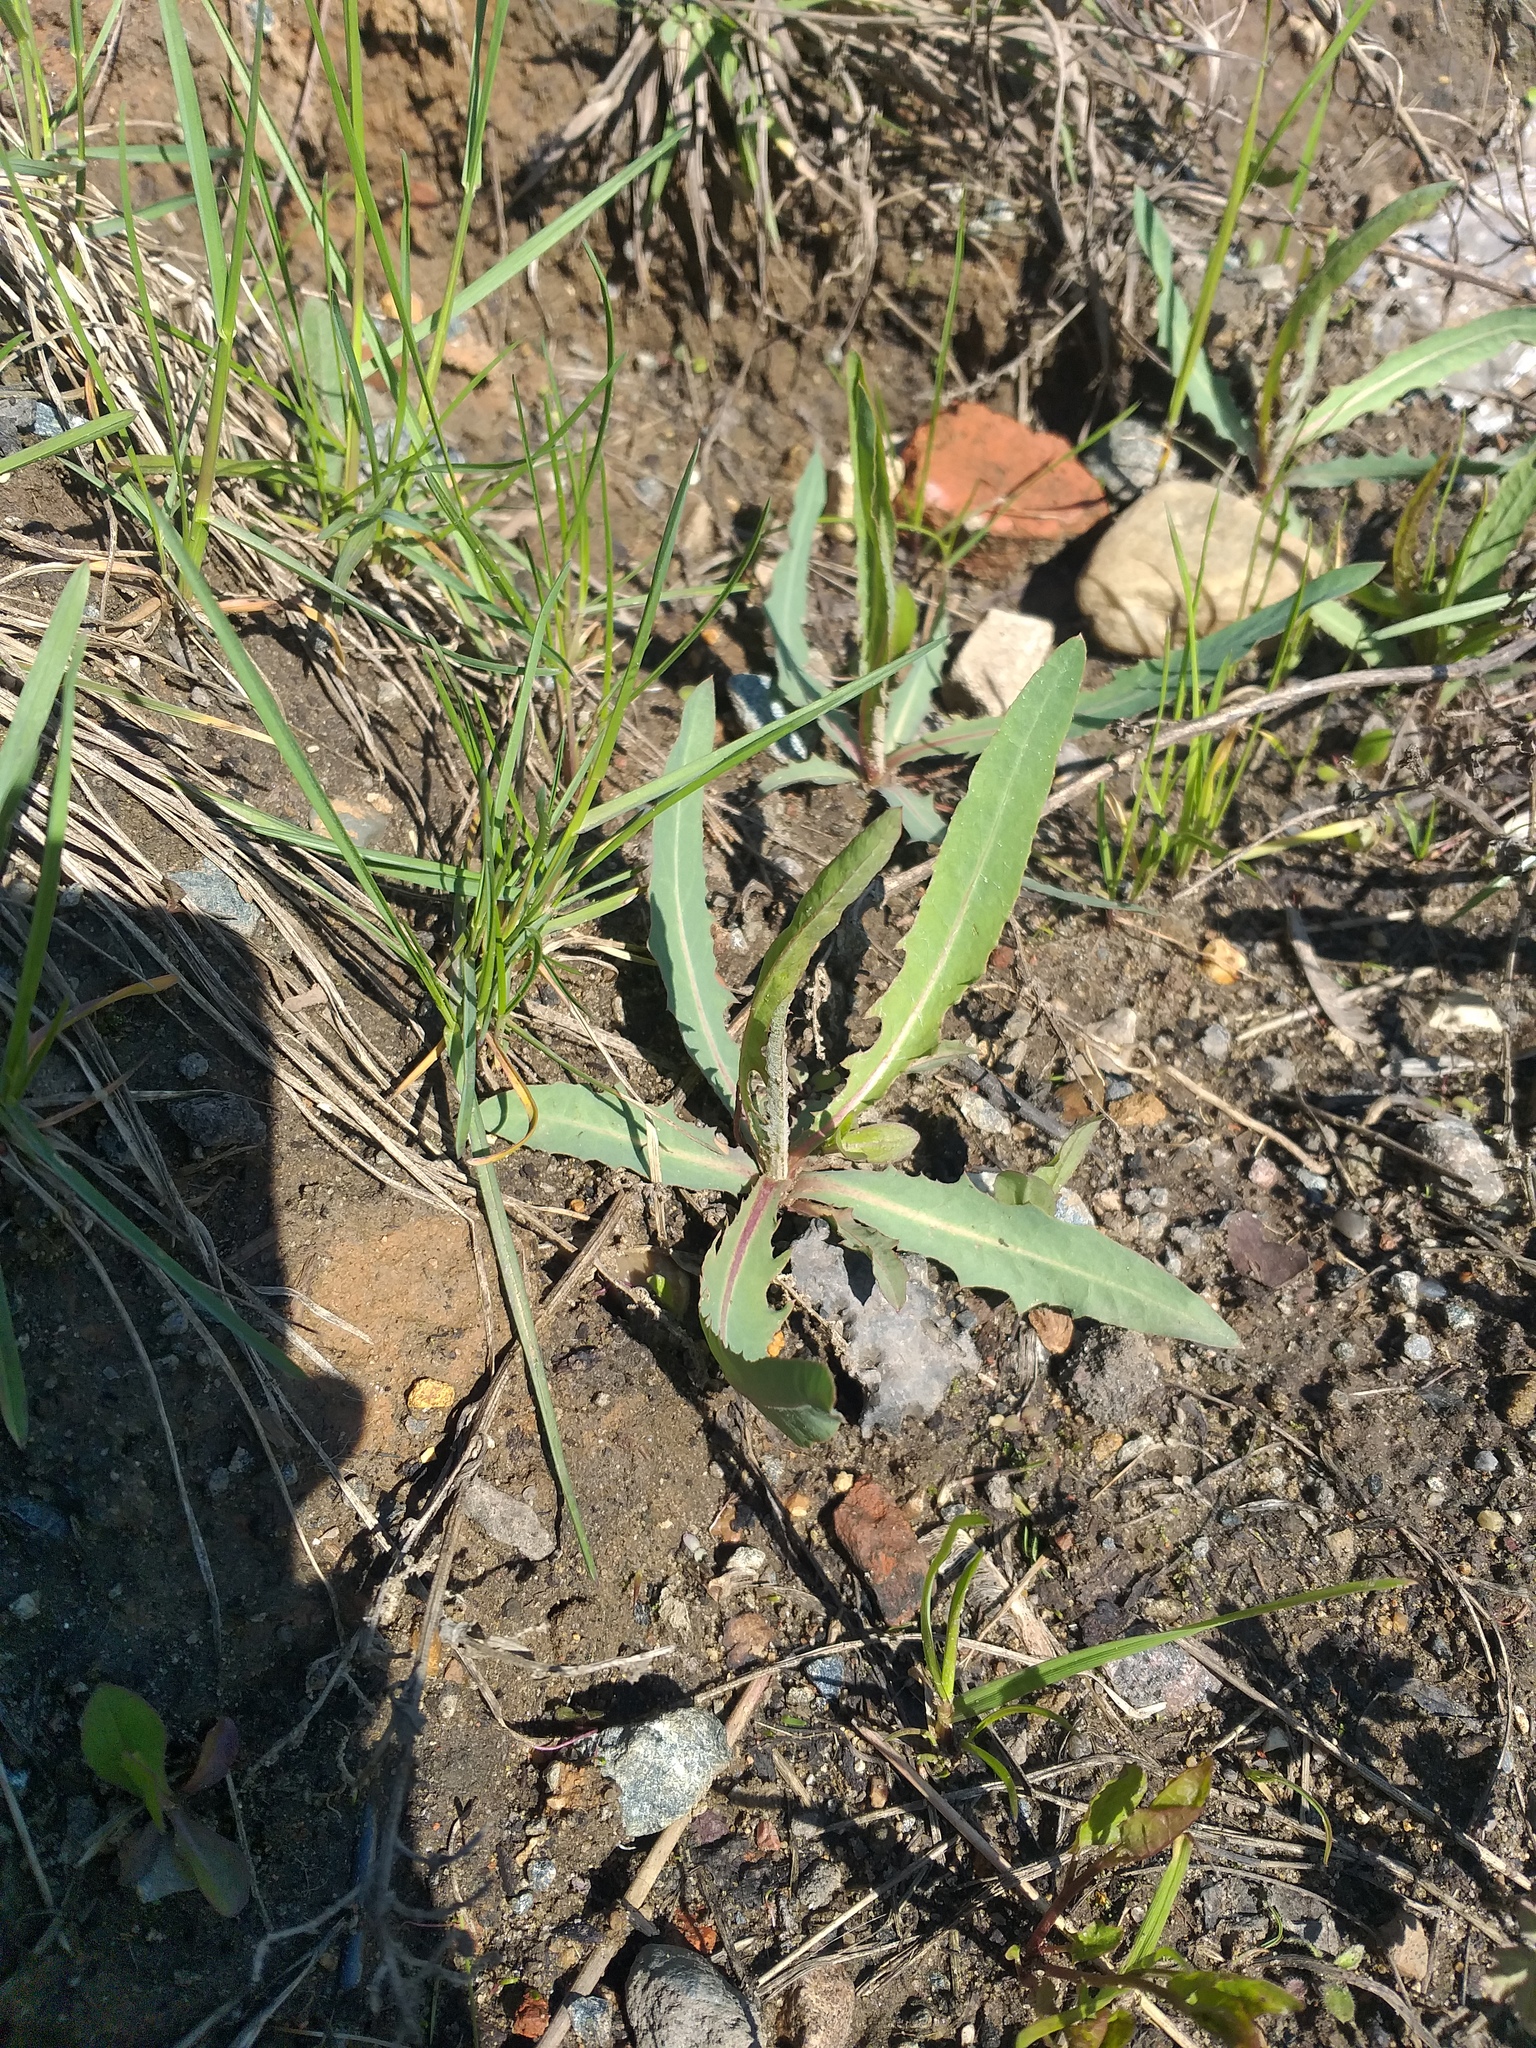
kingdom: Plantae
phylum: Tracheophyta
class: Magnoliopsida
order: Asterales
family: Asteraceae
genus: Lactuca
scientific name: Lactuca tatarica
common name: Blue lettuce
